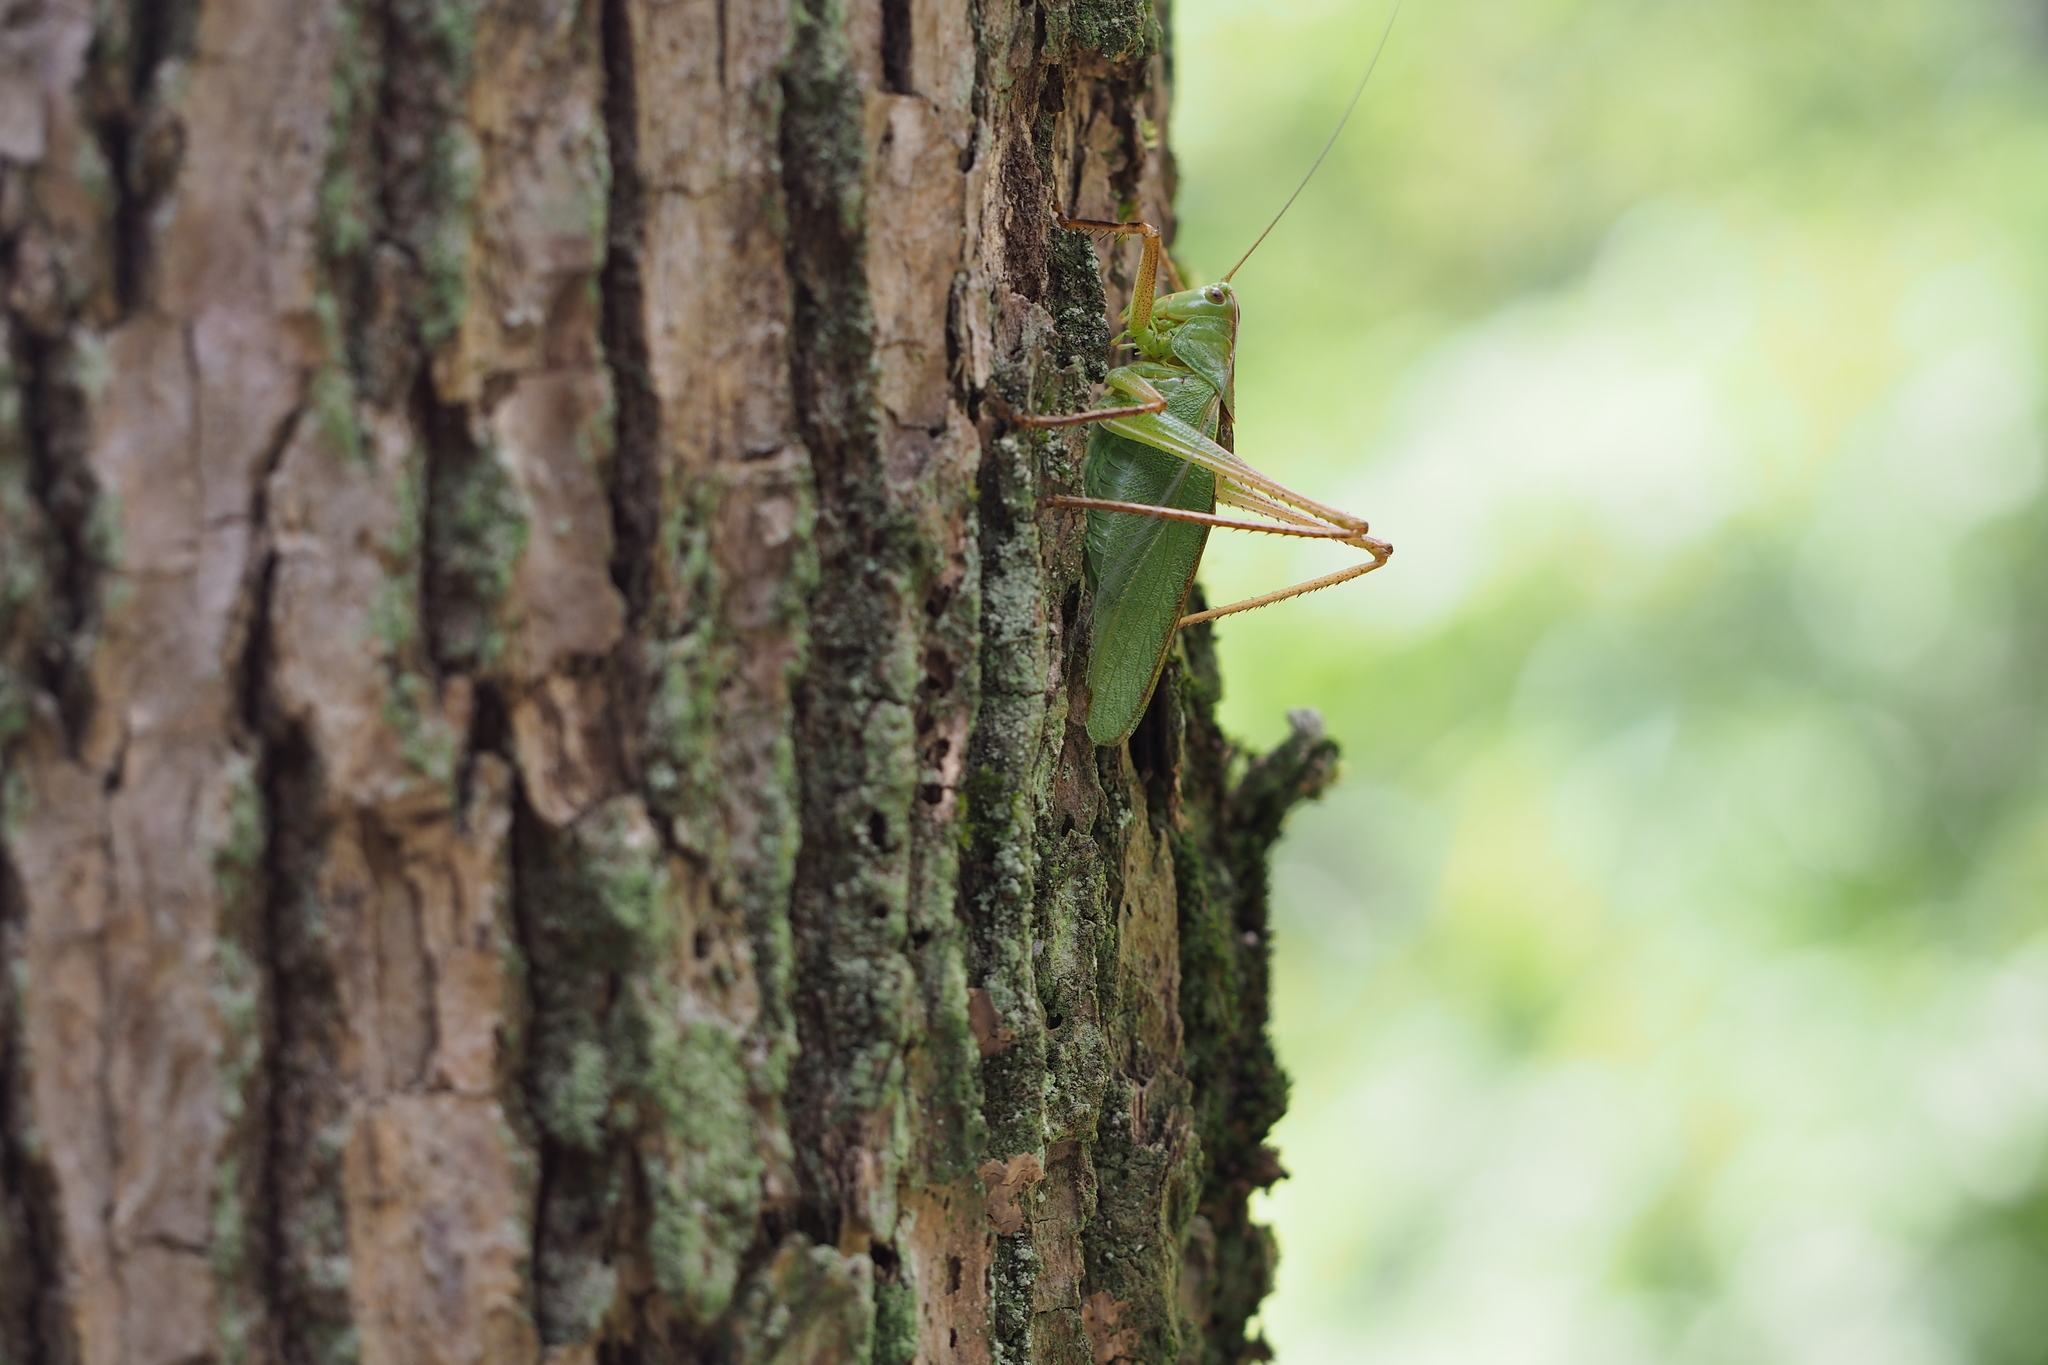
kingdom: Animalia
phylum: Arthropoda
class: Insecta
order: Orthoptera
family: Tettigoniidae
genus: Tettigonia
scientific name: Tettigonia orientalis
